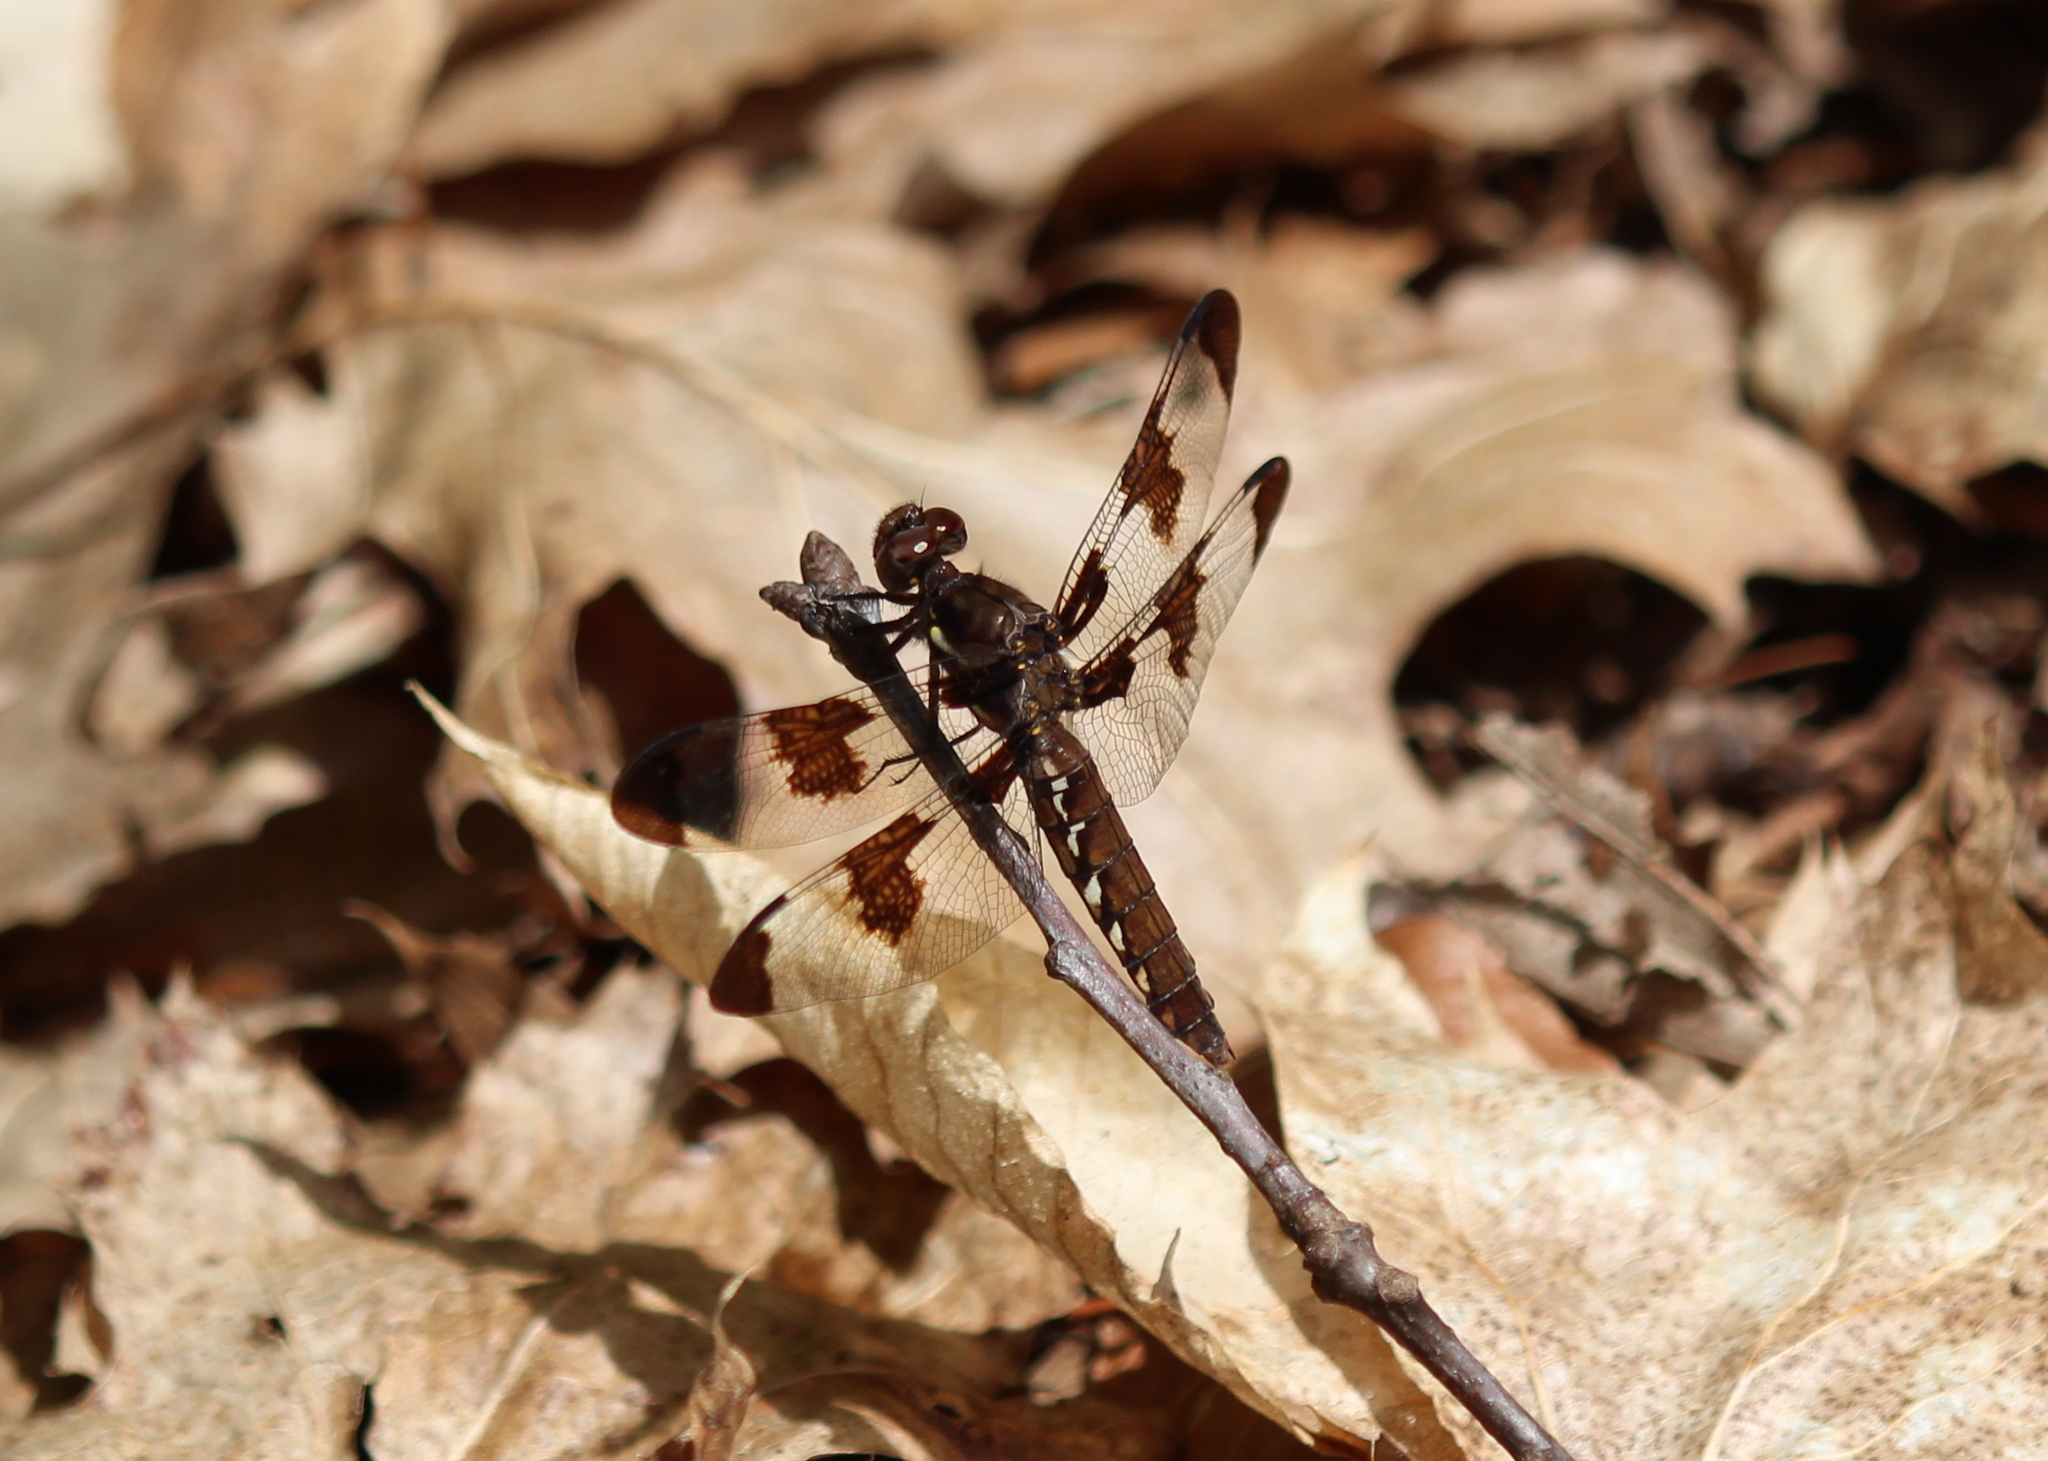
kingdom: Animalia
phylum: Arthropoda
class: Insecta
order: Odonata
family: Libellulidae
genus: Plathemis
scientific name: Plathemis lydia
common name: Common whitetail
